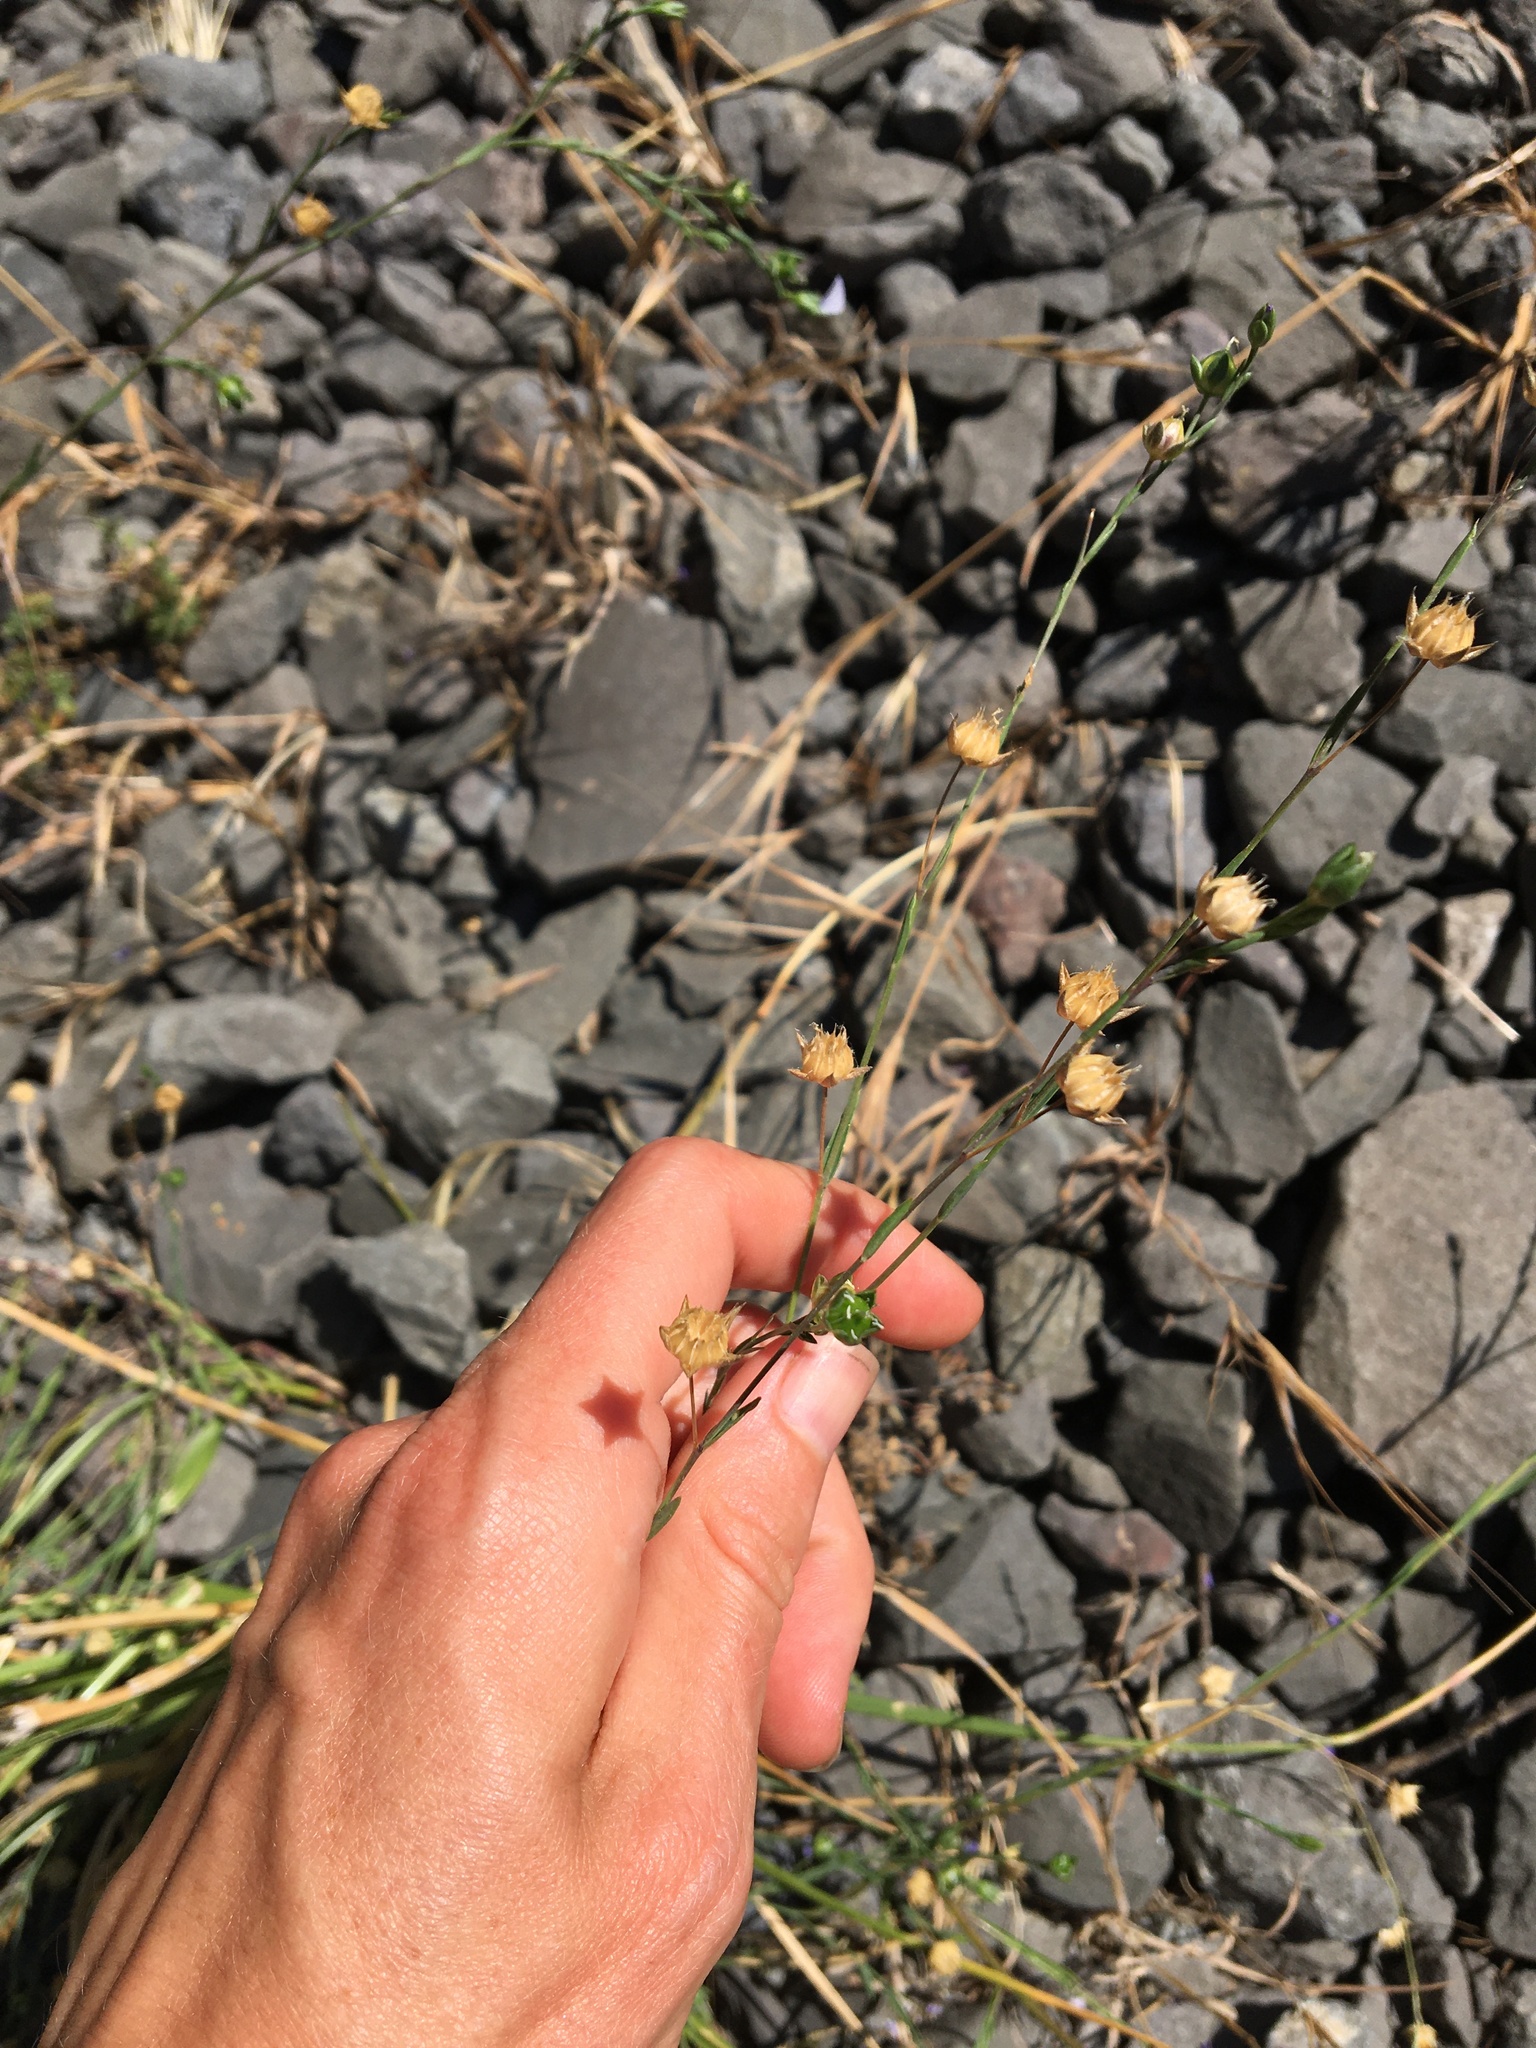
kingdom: Plantae
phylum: Tracheophyta
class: Magnoliopsida
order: Malpighiales
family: Linaceae
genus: Linum
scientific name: Linum bienne
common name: Pale flax
